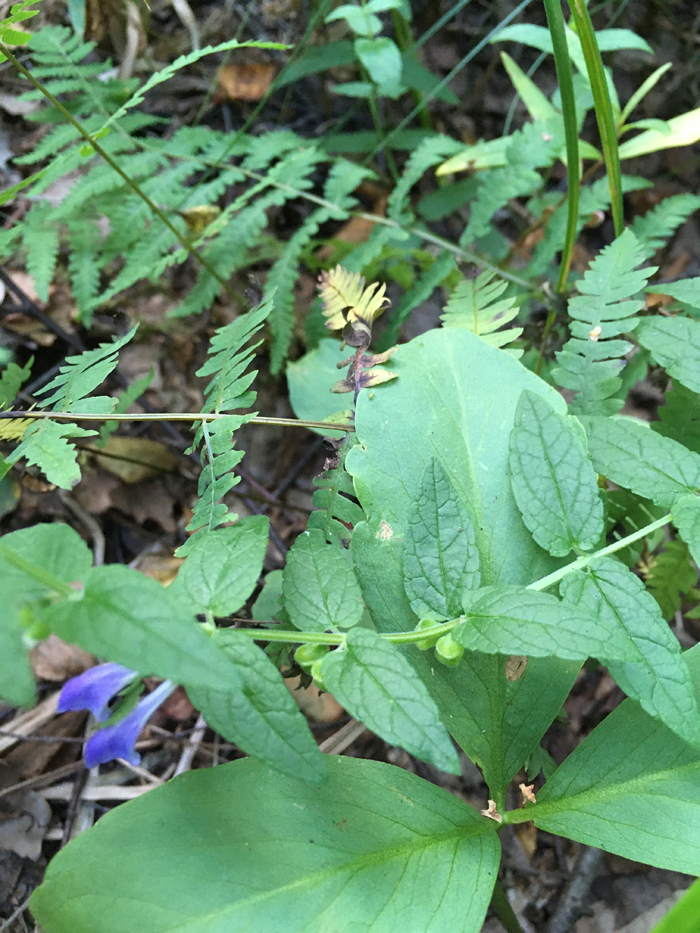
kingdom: Plantae
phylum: Tracheophyta
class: Magnoliopsida
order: Lamiales
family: Lamiaceae
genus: Scutellaria
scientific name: Scutellaria galericulata
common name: Skullcap
